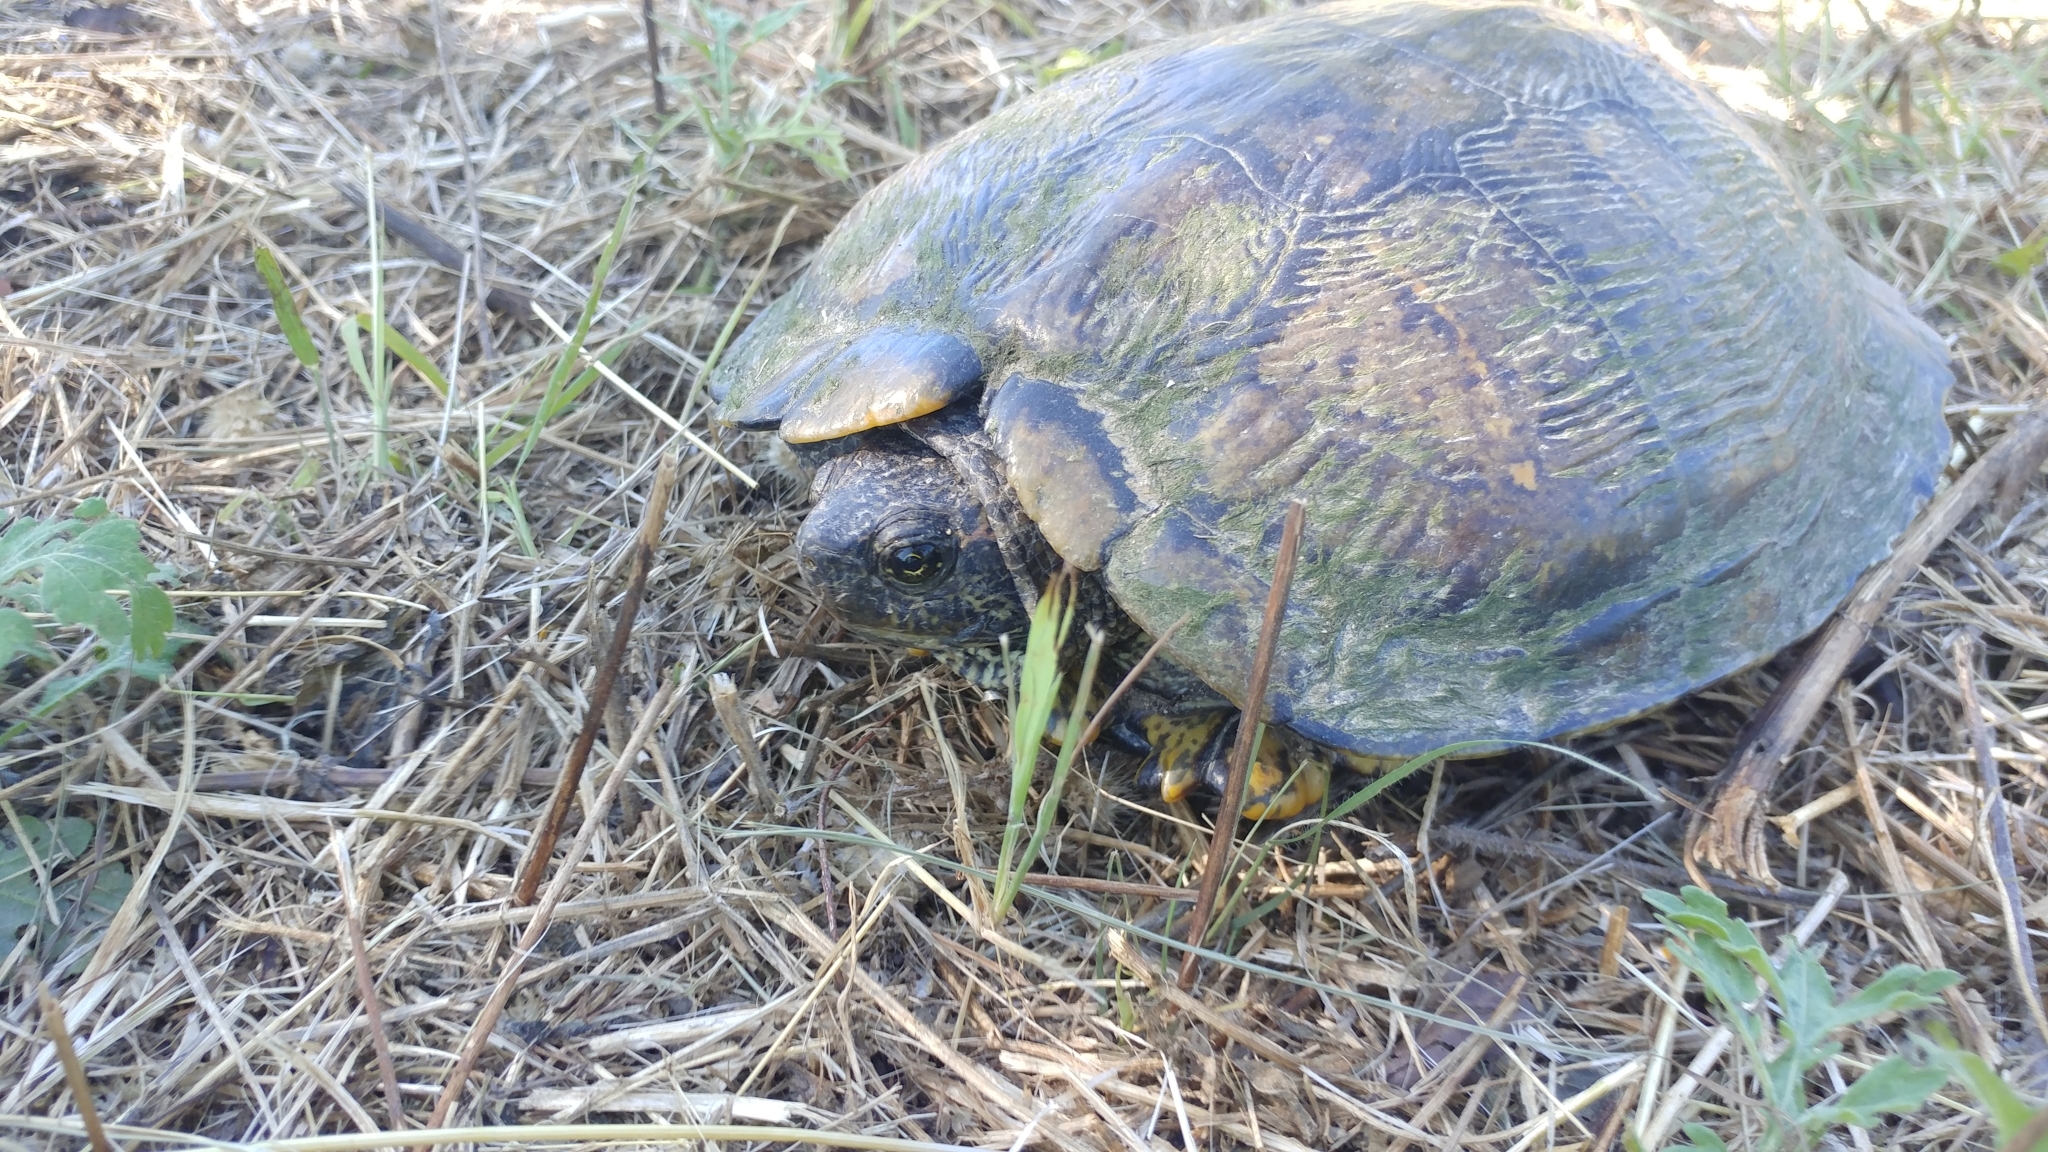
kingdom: Animalia
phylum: Chordata
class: Testudines
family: Emydidae
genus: Trachemys
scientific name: Trachemys scripta
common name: Slider
